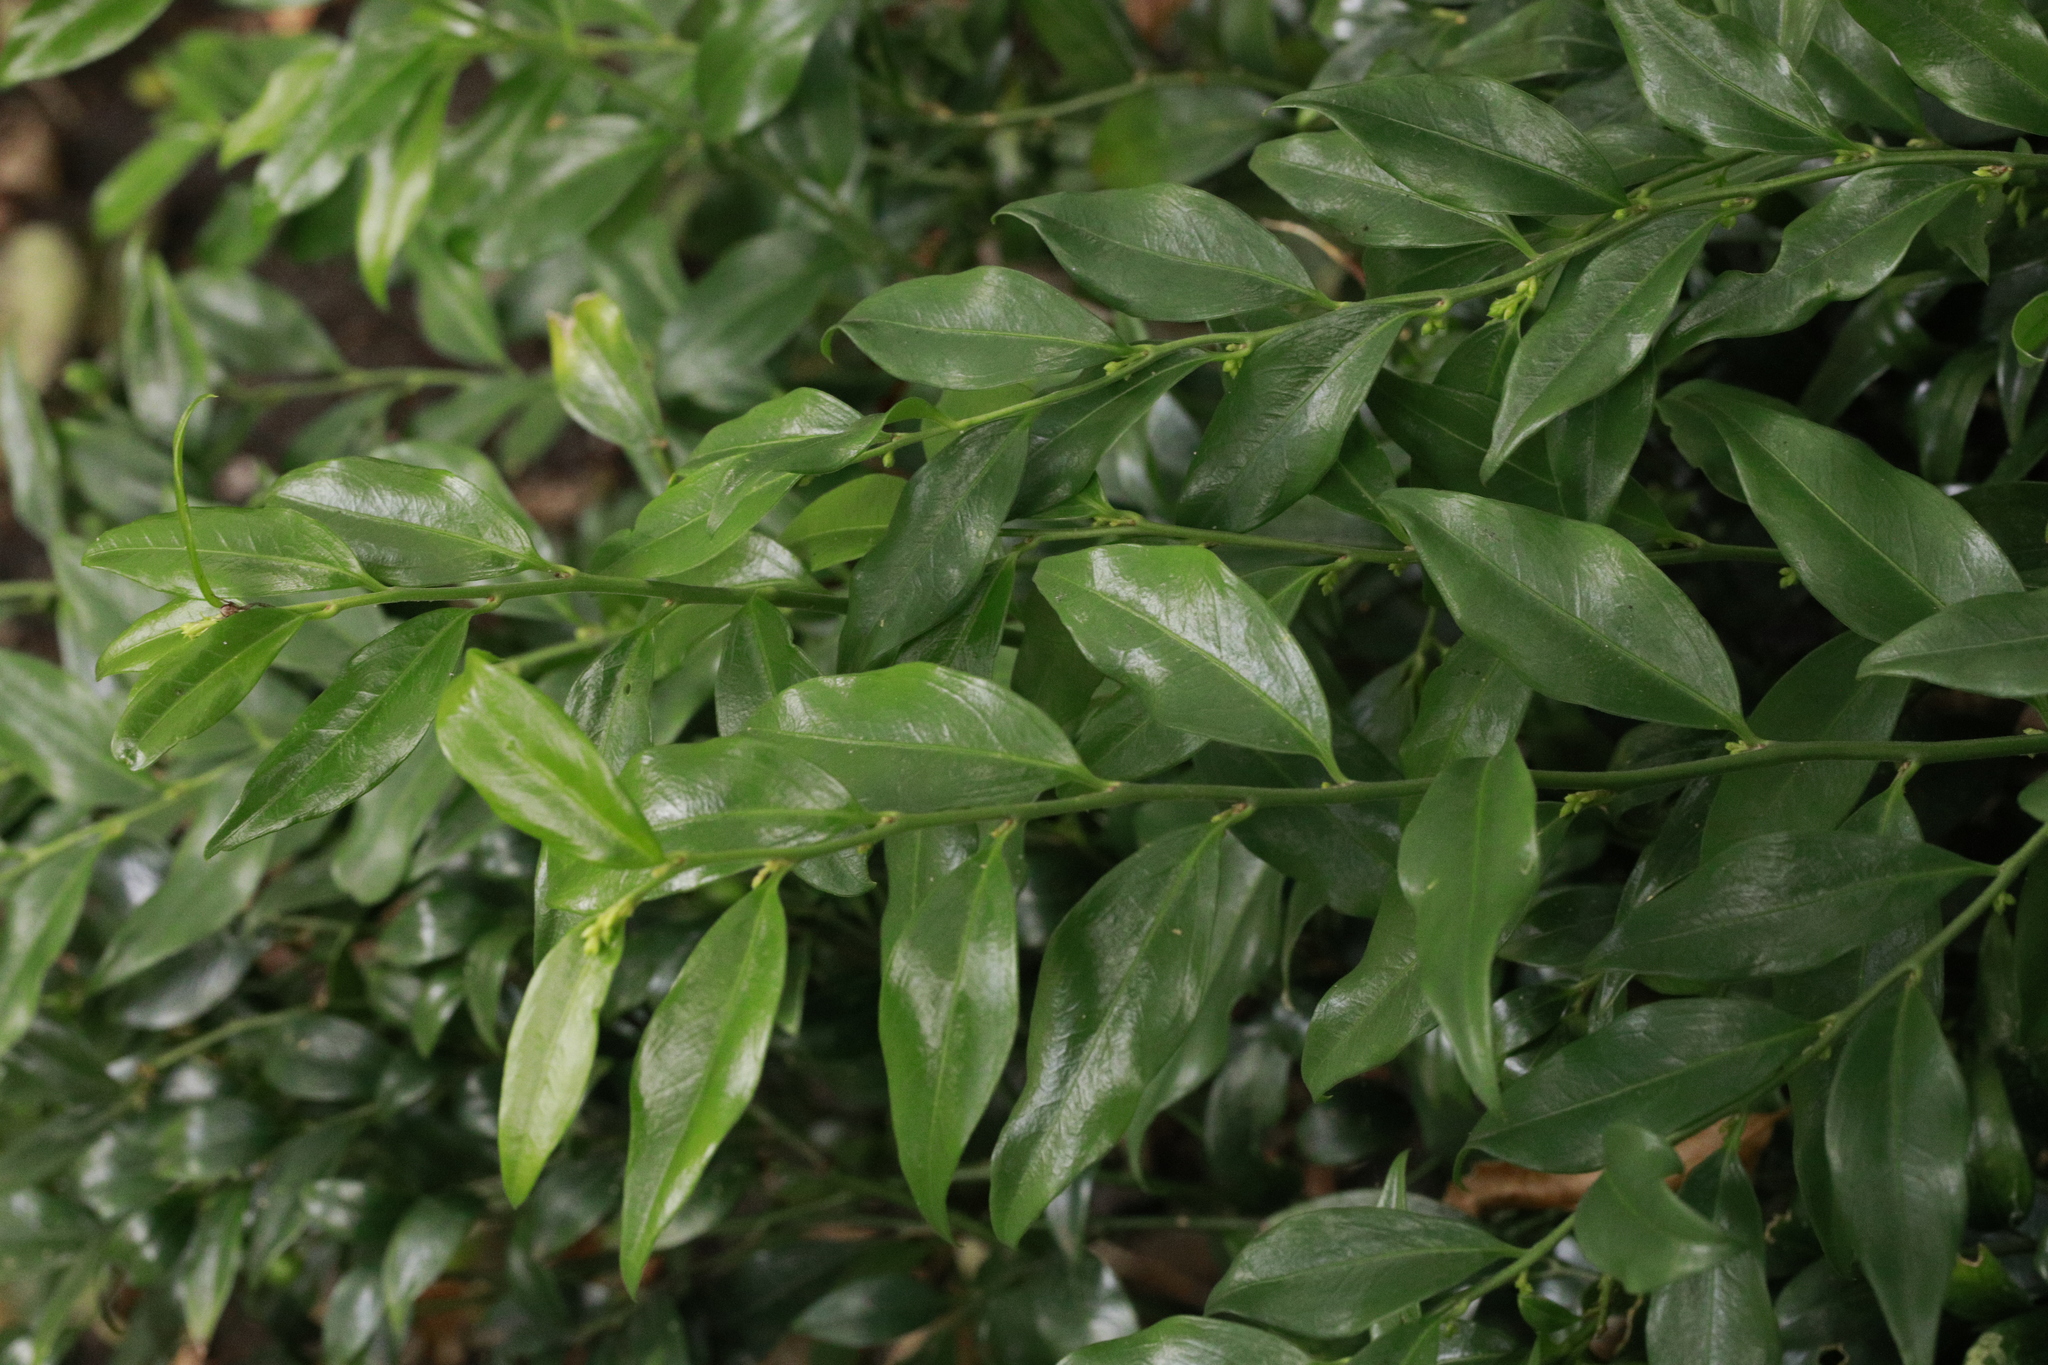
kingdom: Plantae
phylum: Tracheophyta
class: Magnoliopsida
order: Buxales
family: Buxaceae
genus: Sarcococca
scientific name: Sarcococca confusa
